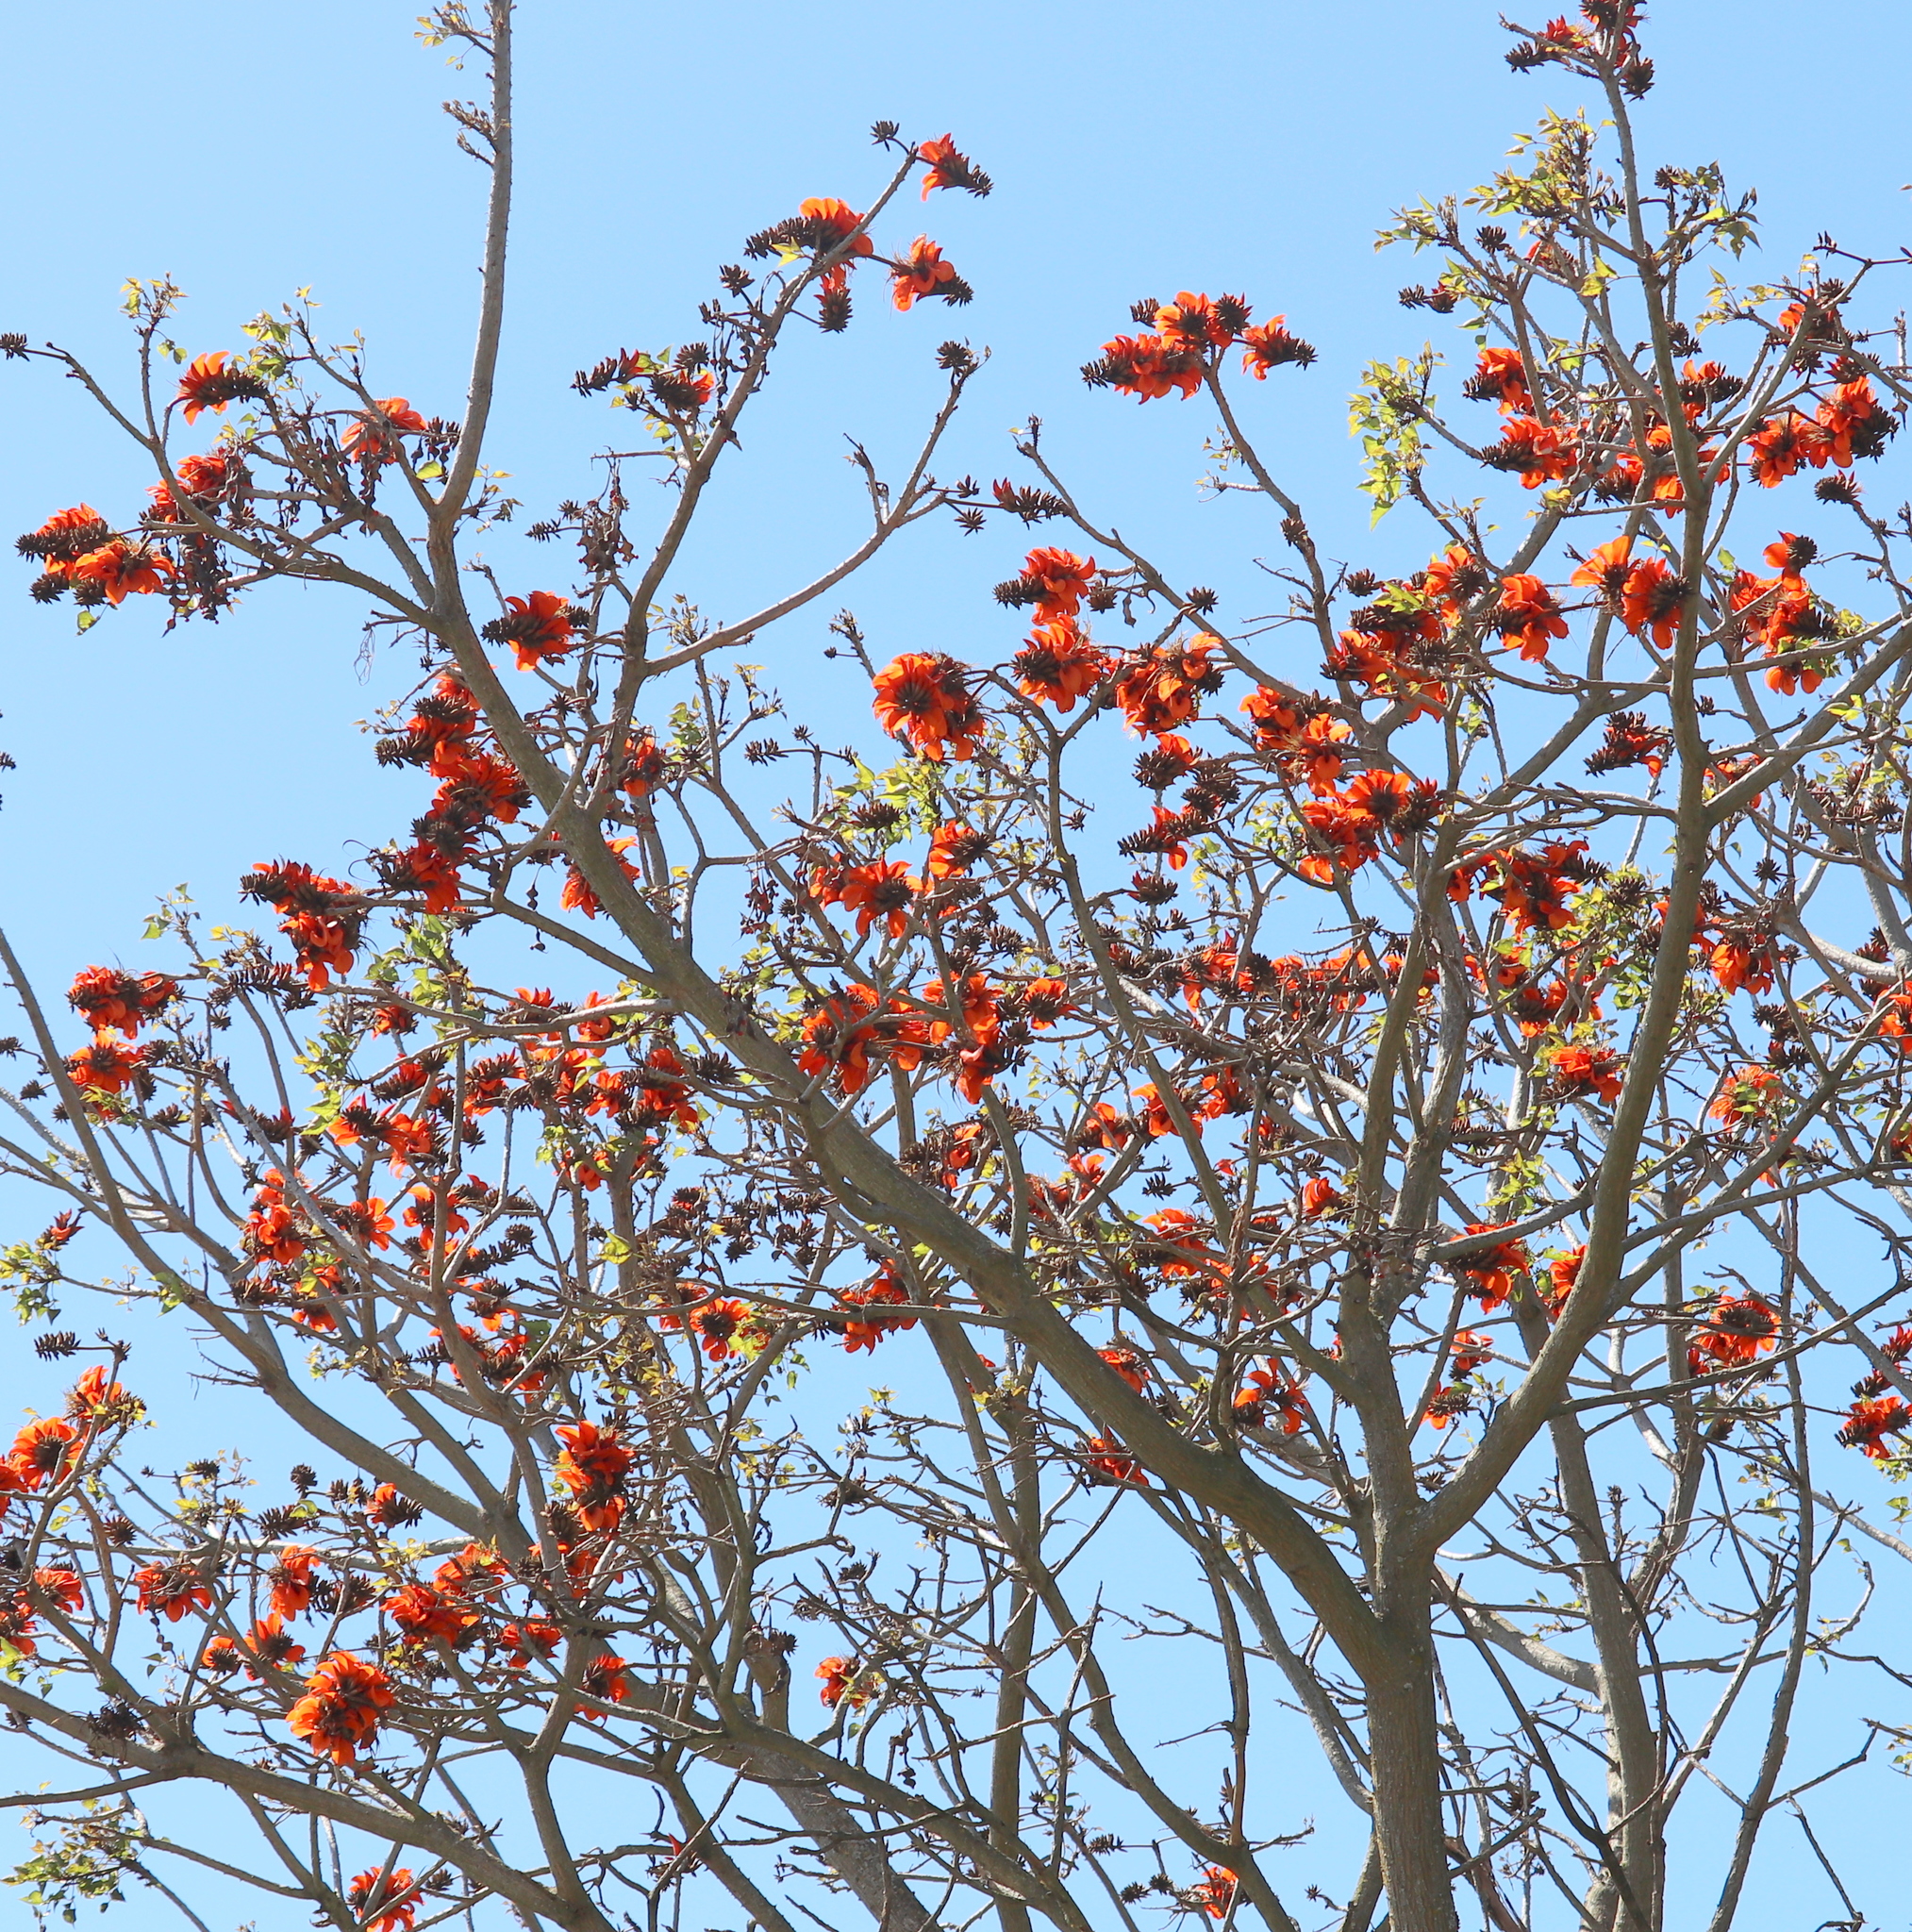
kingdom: Plantae
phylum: Tracheophyta
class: Magnoliopsida
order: Fabales
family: Fabaceae
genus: Erythrina
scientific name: Erythrina caffra
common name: Coast coral tree
